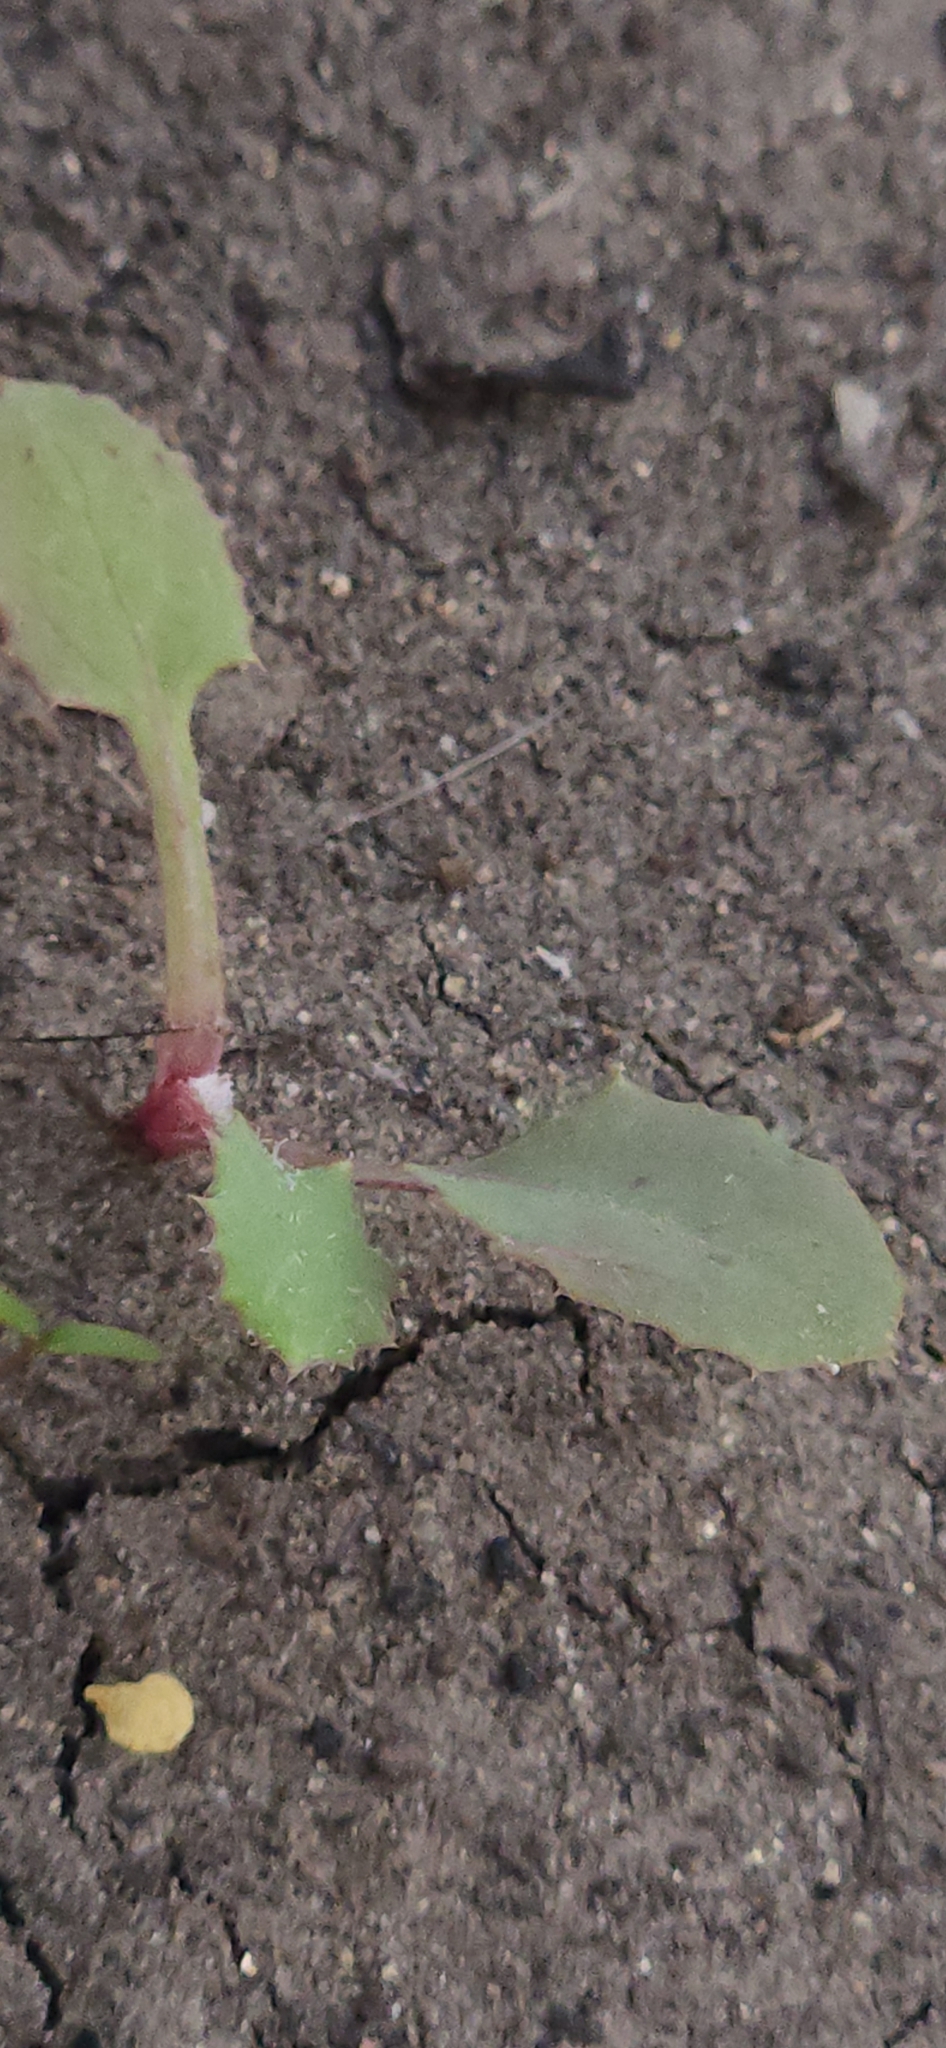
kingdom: Plantae
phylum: Tracheophyta
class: Magnoliopsida
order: Asterales
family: Asteraceae
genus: Sonchus
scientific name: Sonchus oleraceus
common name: Common sowthistle
